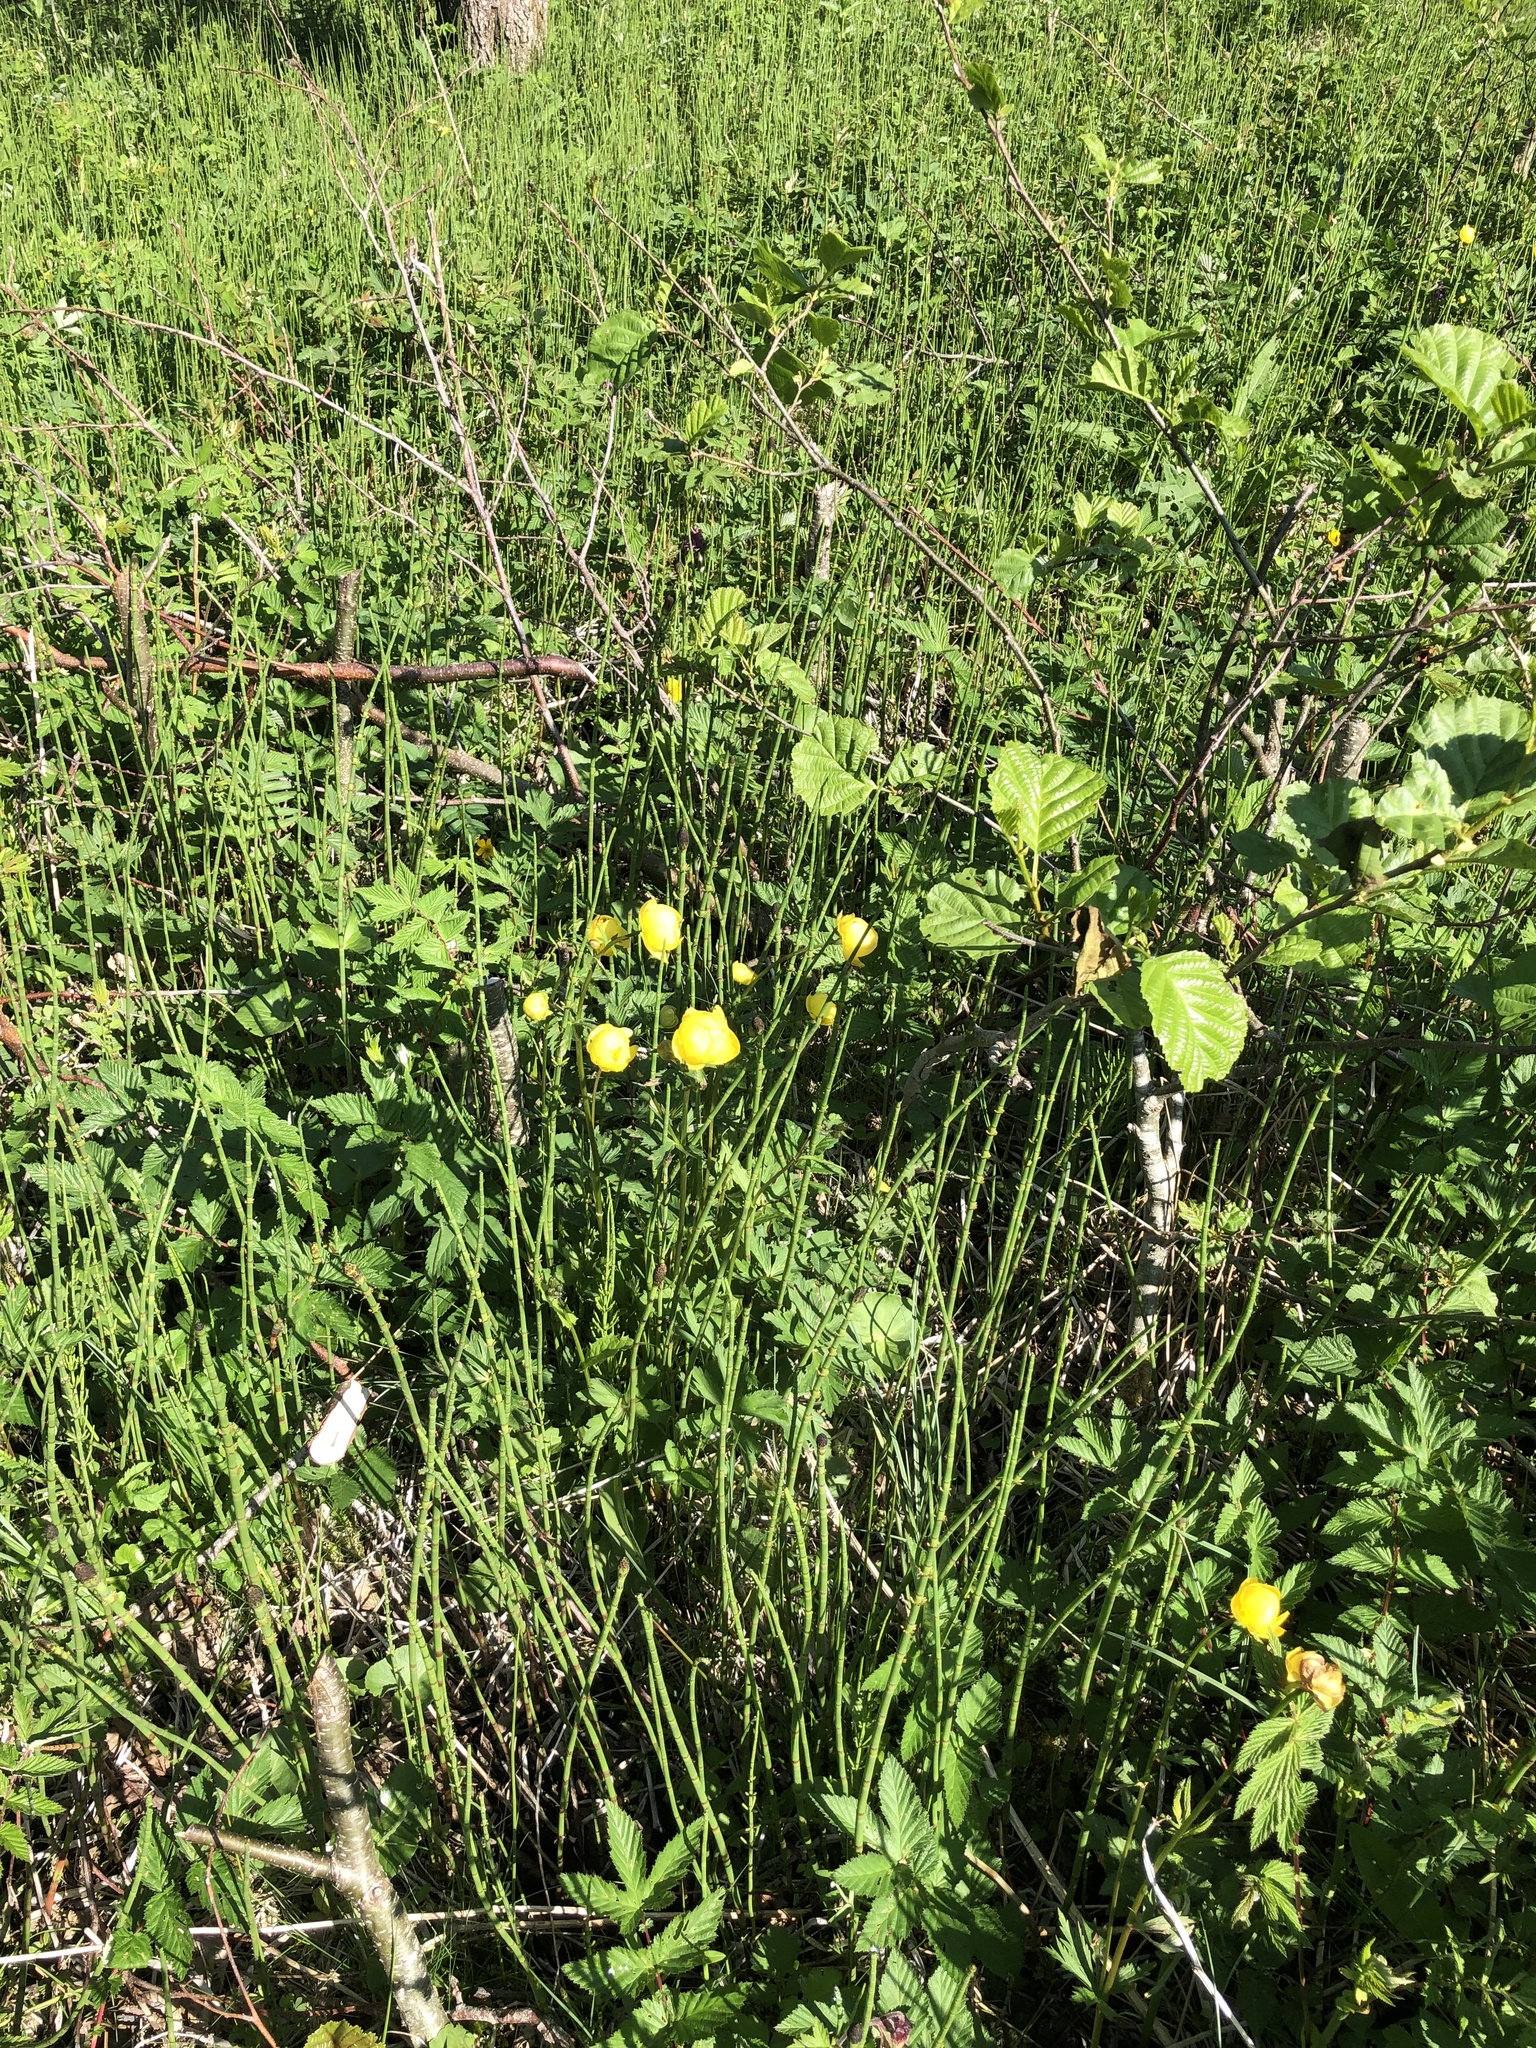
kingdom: Plantae
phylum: Tracheophyta
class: Magnoliopsida
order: Ranunculales
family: Ranunculaceae
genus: Trollius
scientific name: Trollius europaeus
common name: European globeflower
